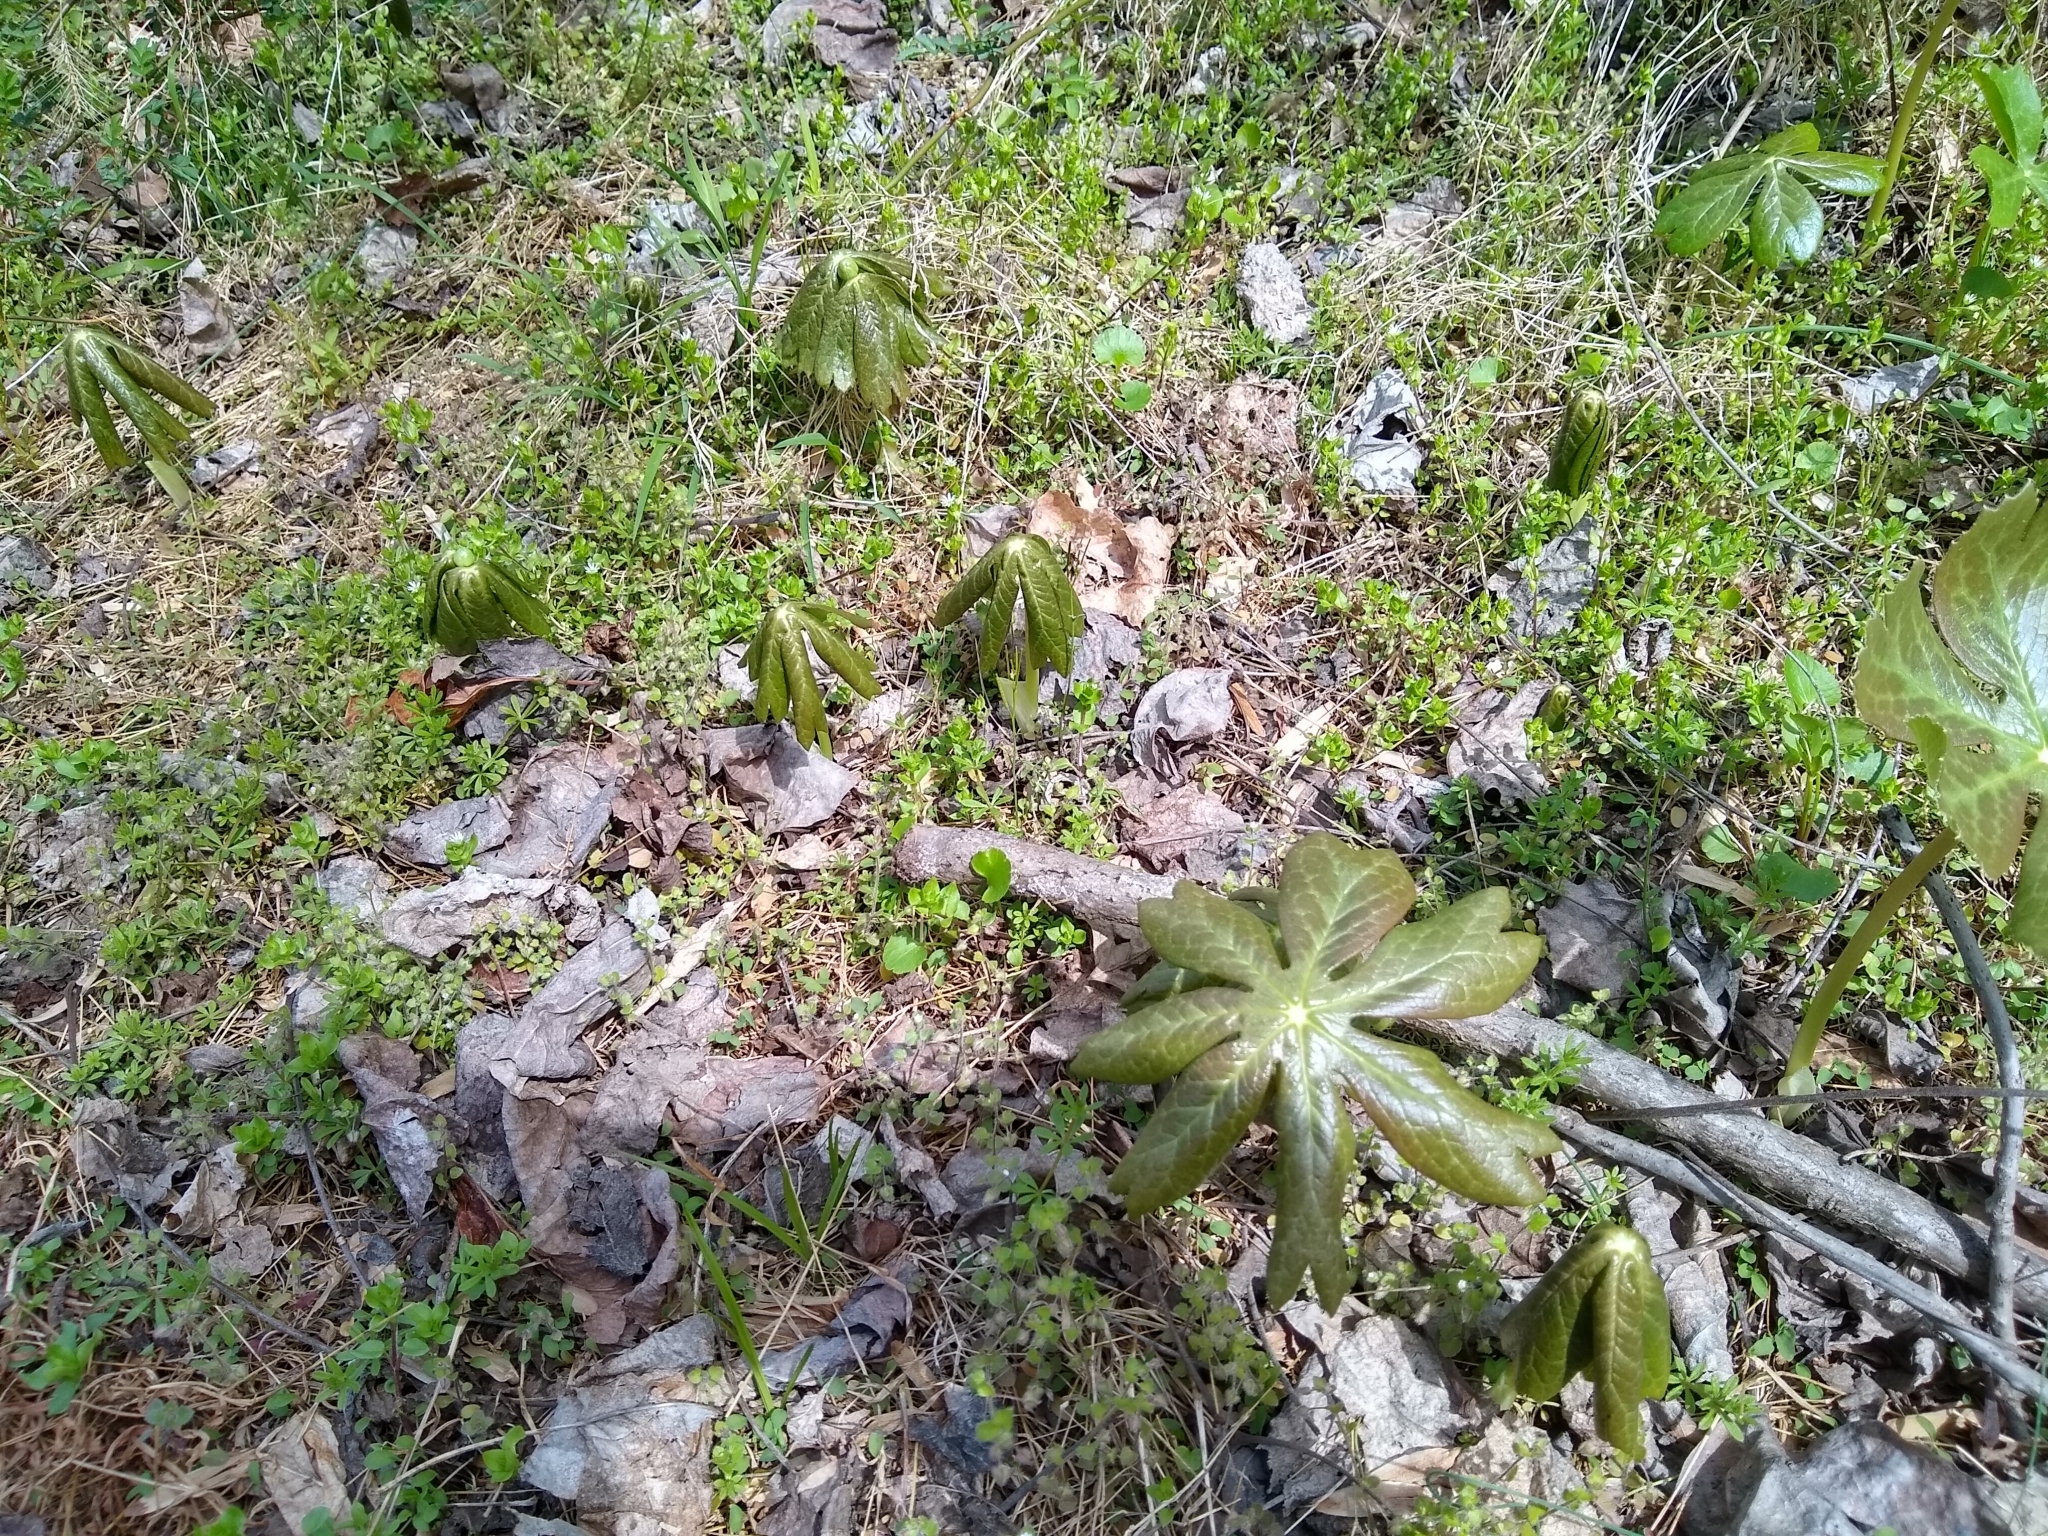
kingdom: Plantae
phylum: Tracheophyta
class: Magnoliopsida
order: Ranunculales
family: Berberidaceae
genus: Podophyllum
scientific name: Podophyllum peltatum
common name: Wild mandrake
